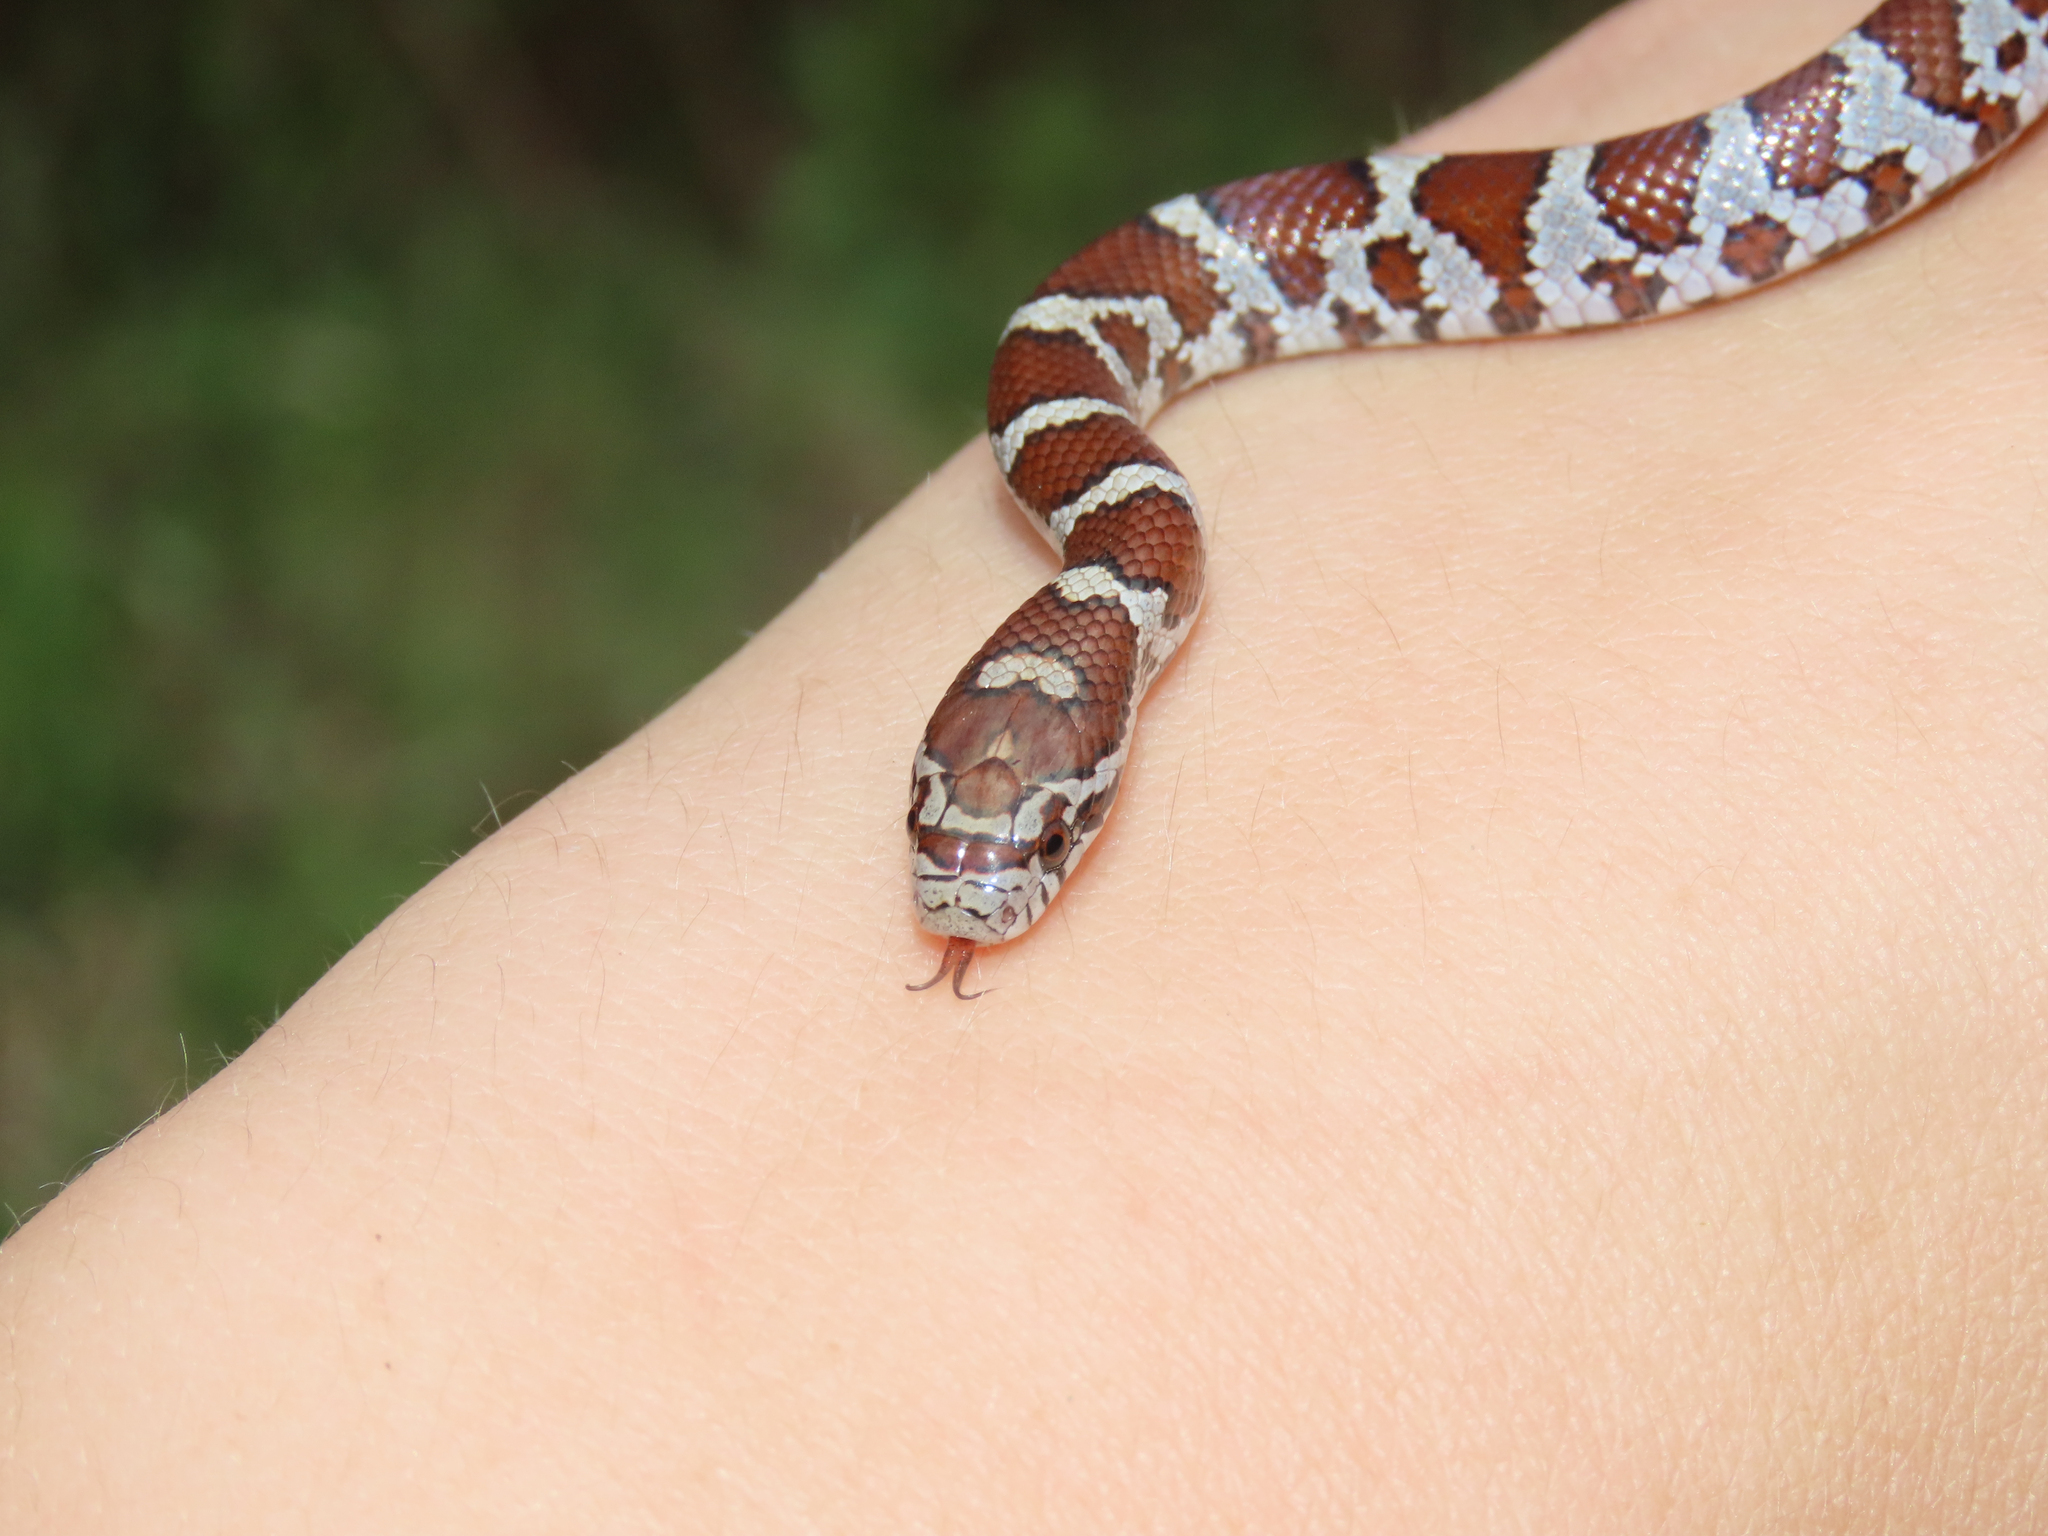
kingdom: Animalia
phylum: Chordata
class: Squamata
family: Colubridae
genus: Lampropeltis
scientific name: Lampropeltis triangulum
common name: Eastern milksnake
